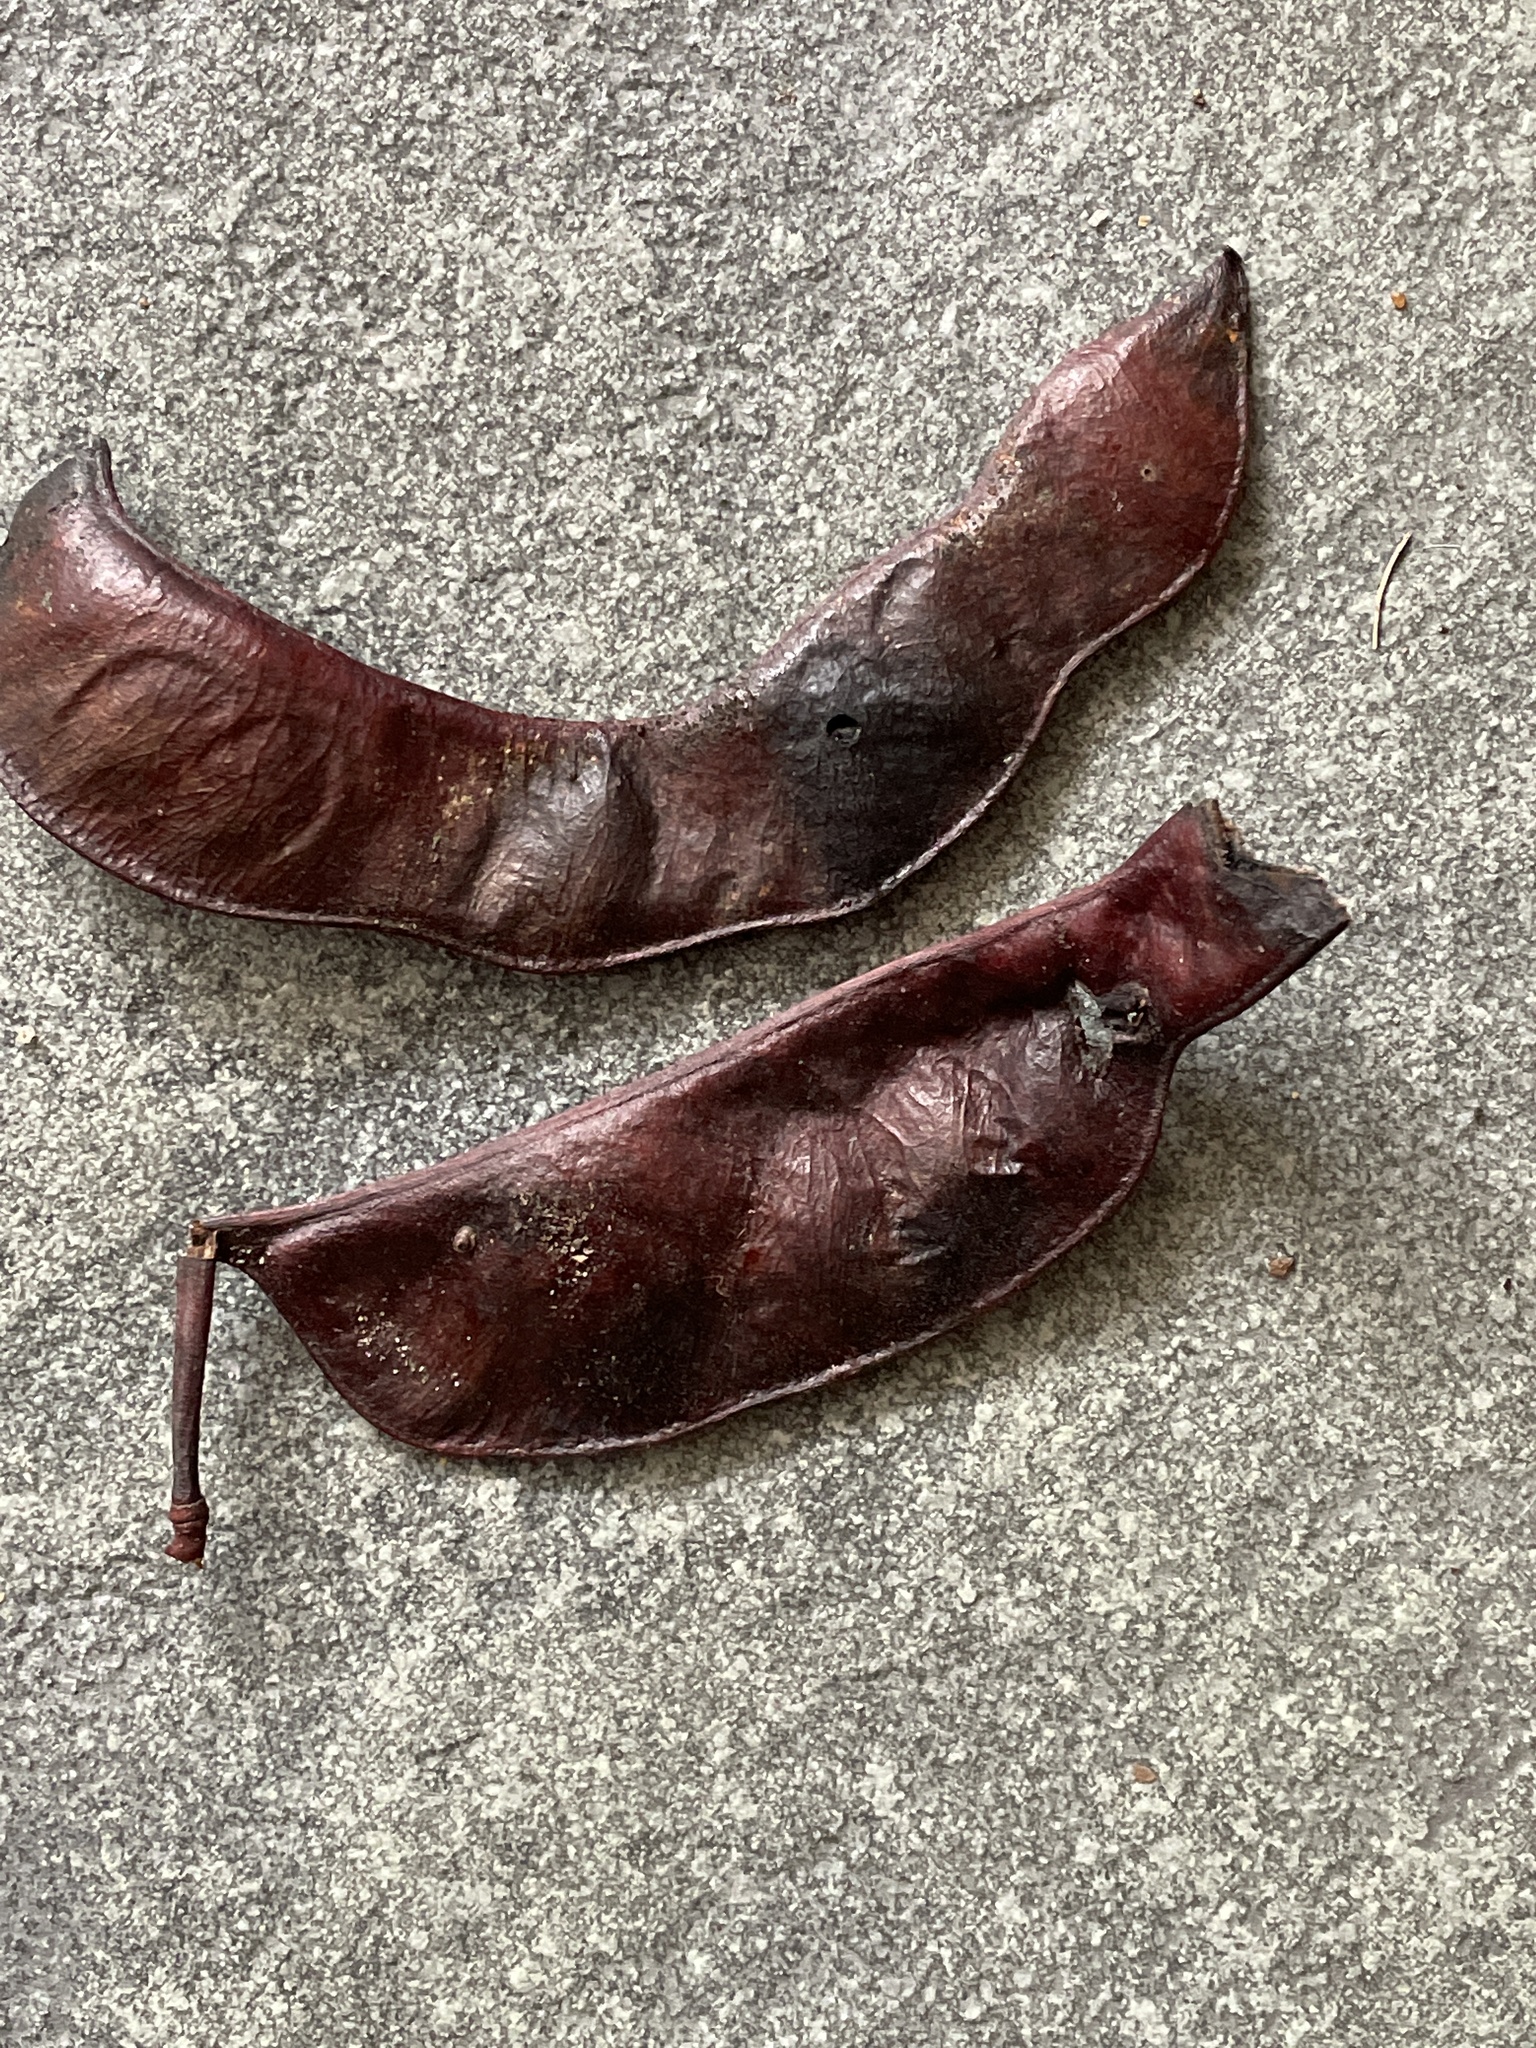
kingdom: Plantae
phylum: Tracheophyta
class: Magnoliopsida
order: Fabales
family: Fabaceae
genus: Gleditsia
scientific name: Gleditsia triacanthos
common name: Common honeylocust
